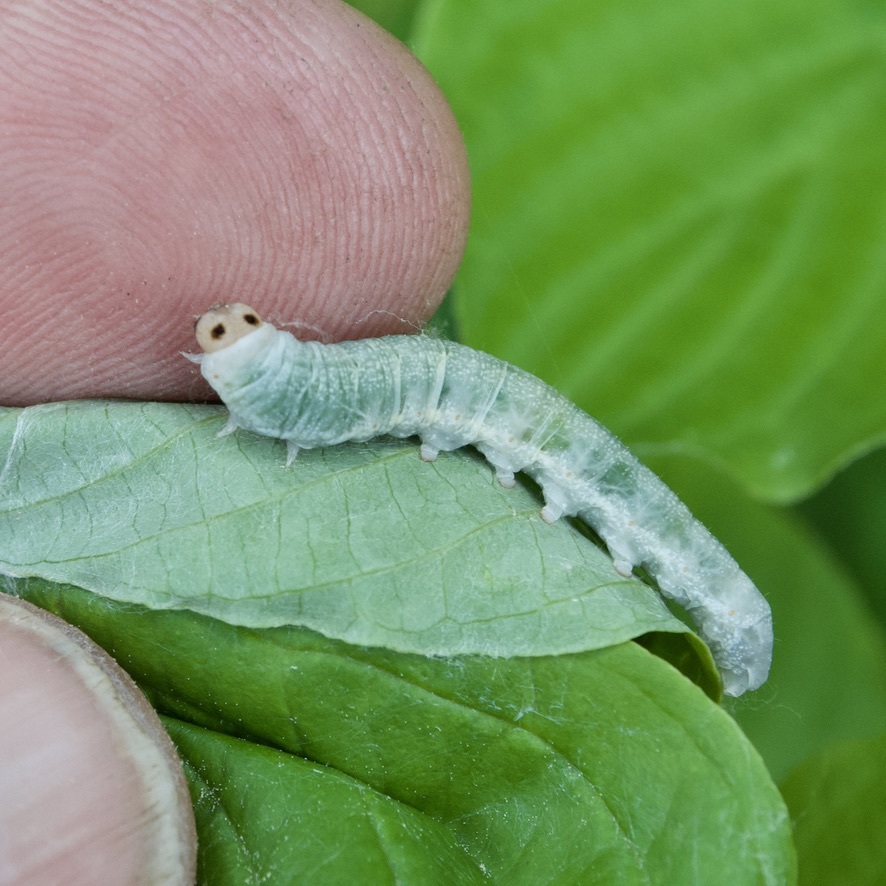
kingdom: Animalia
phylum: Arthropoda
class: Insecta
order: Lepidoptera
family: Drepanidae
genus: Euthyatira
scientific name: Euthyatira pudens
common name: Dogwood thyatirid moth
